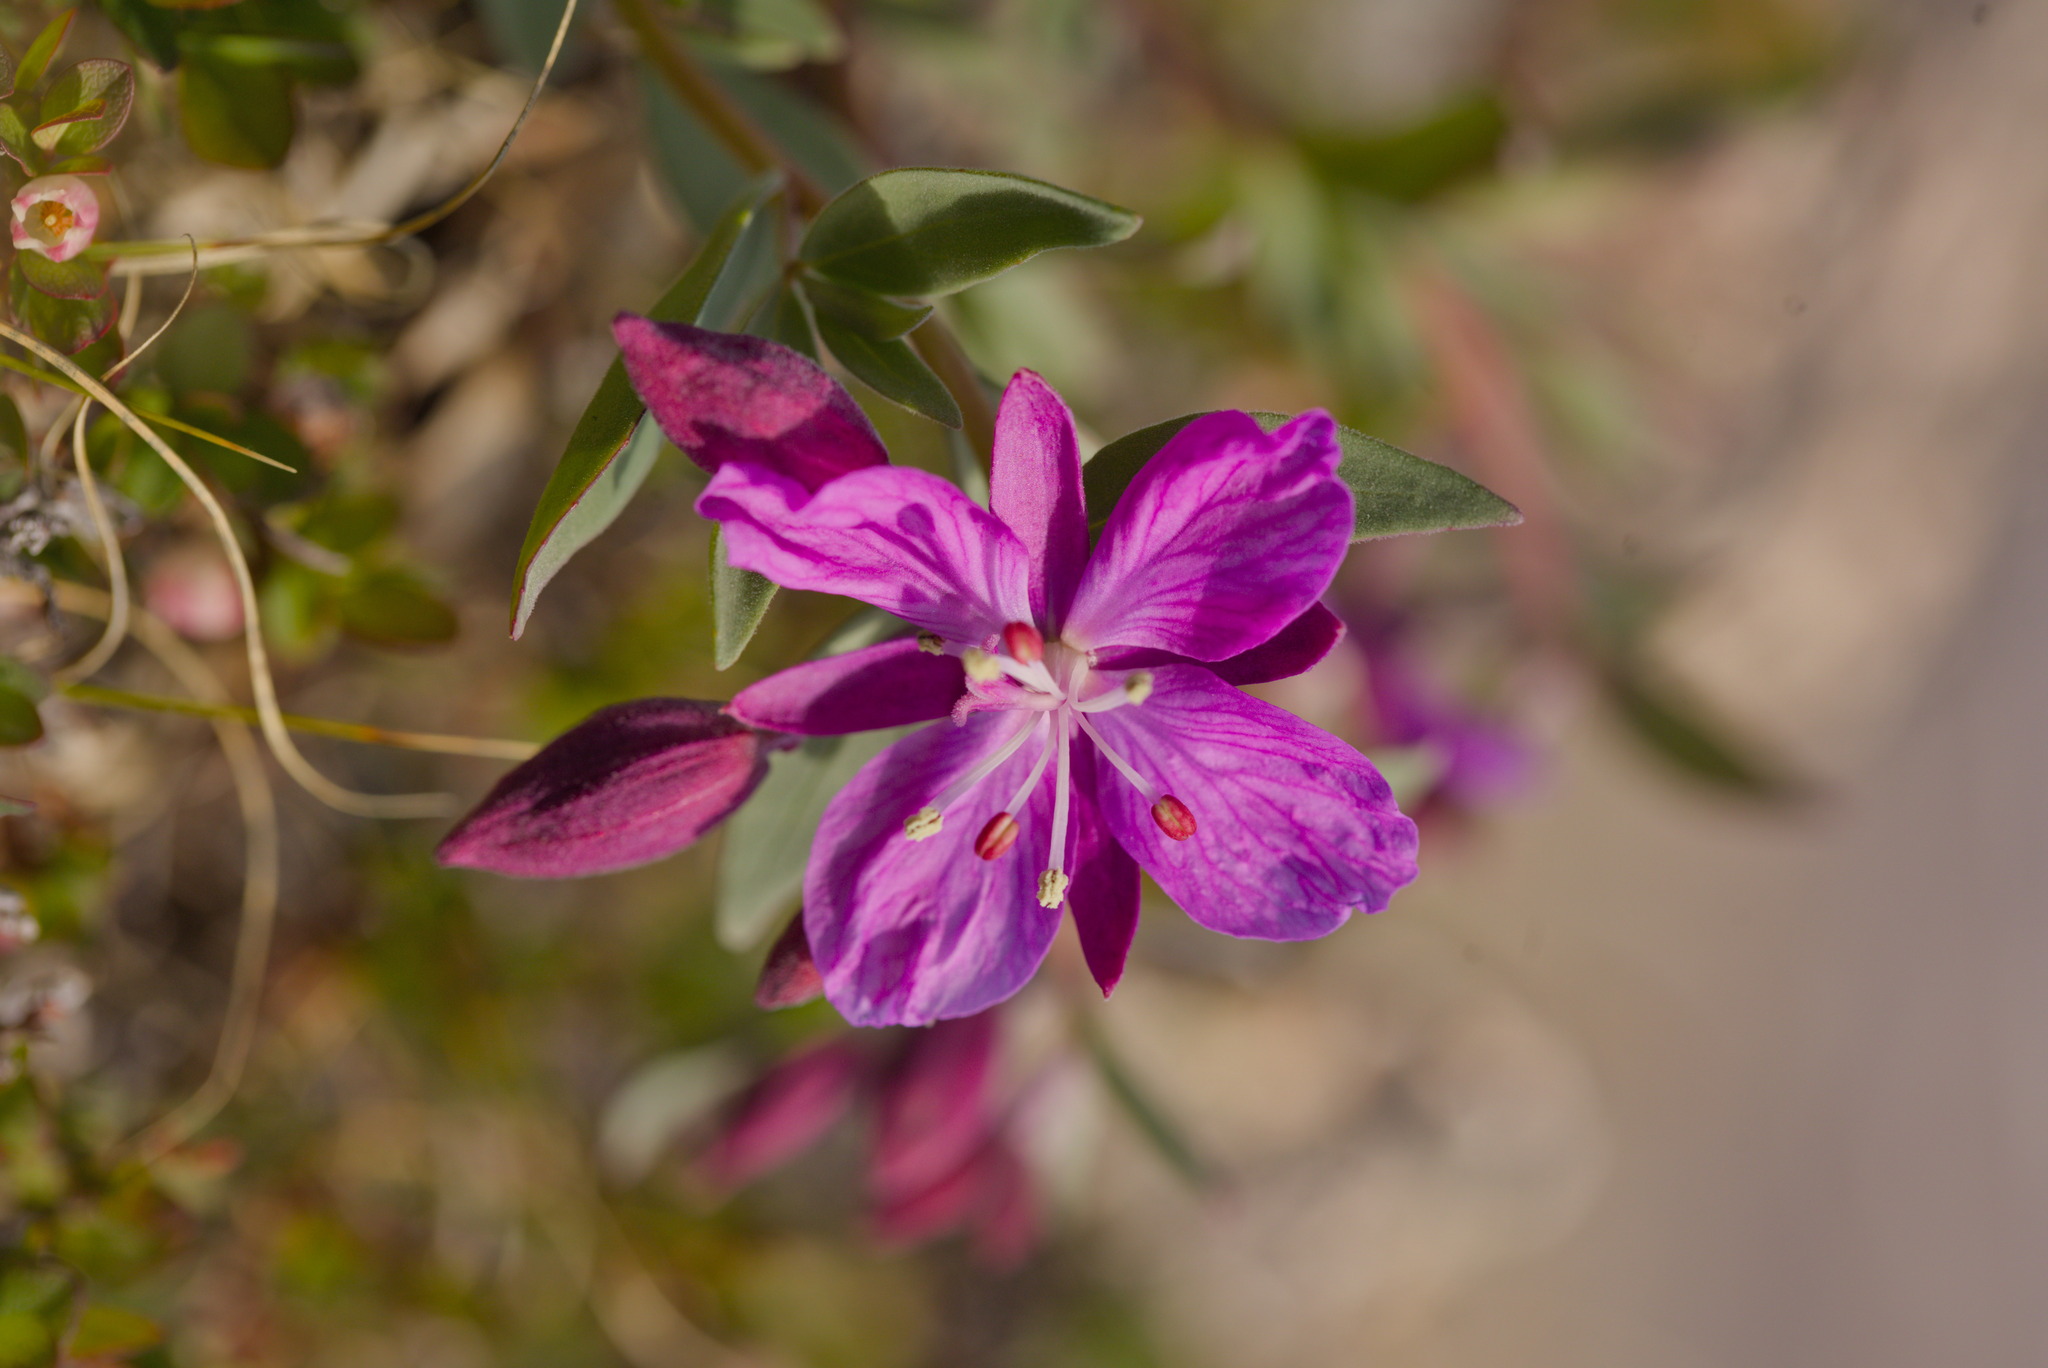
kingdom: Plantae
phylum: Tracheophyta
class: Magnoliopsida
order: Myrtales
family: Onagraceae
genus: Chamaenerion
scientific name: Chamaenerion latifolium
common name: Dwarf fireweed
